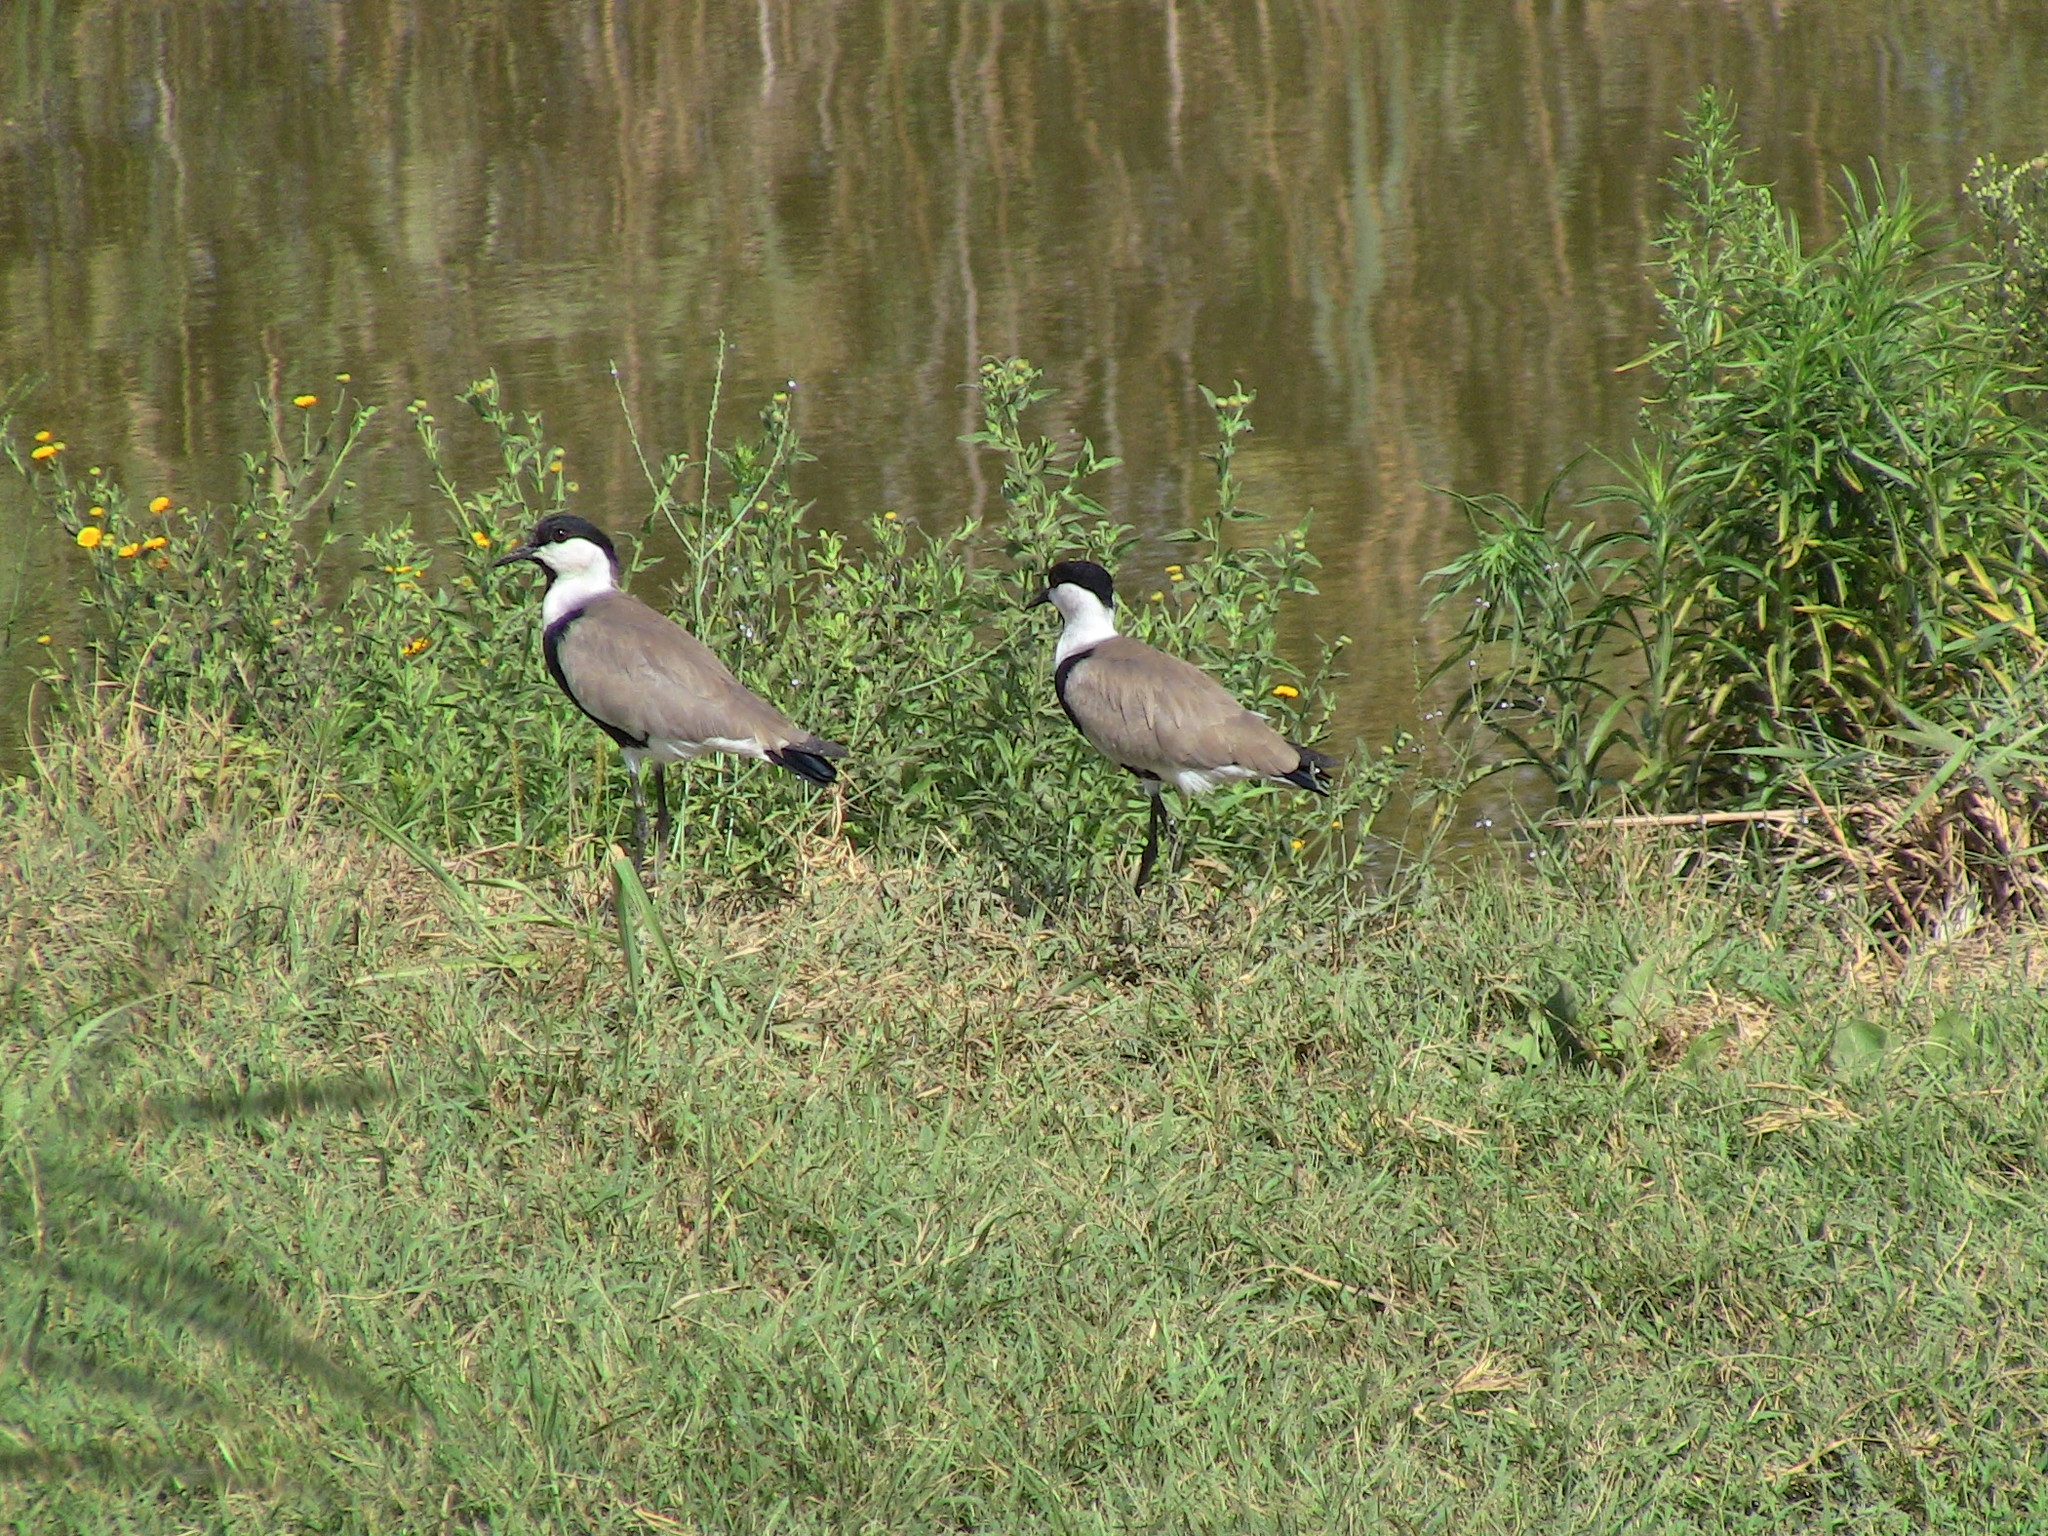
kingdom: Animalia
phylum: Chordata
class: Aves
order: Charadriiformes
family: Charadriidae
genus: Vanellus
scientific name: Vanellus spinosus
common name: Spur-winged lapwing
